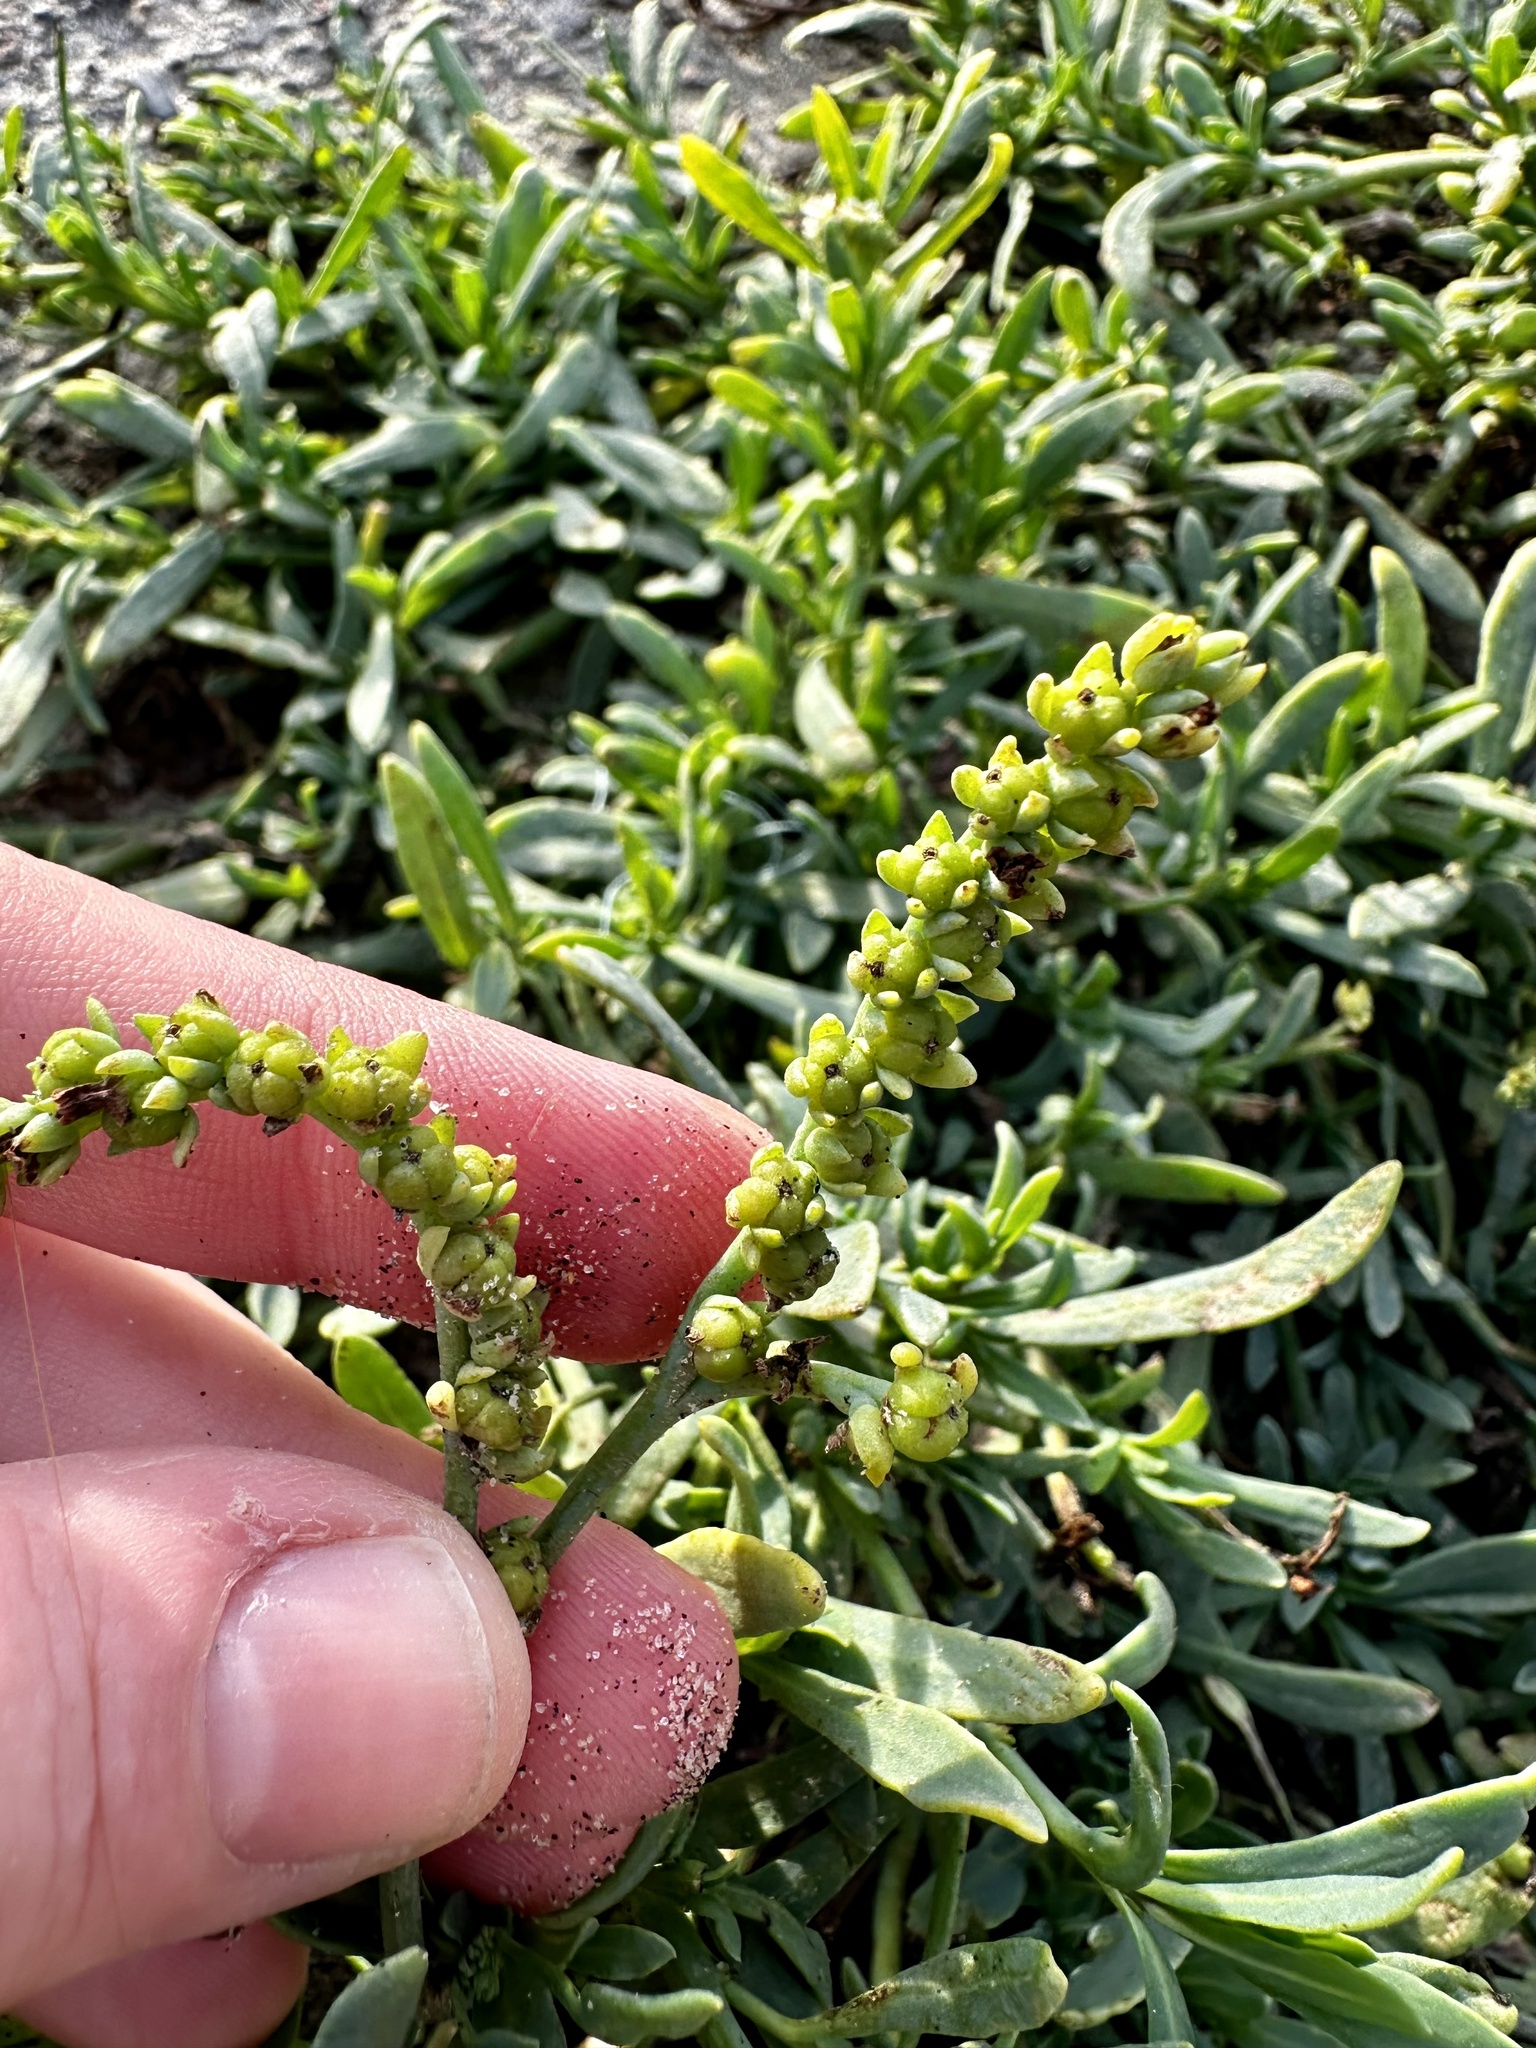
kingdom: Plantae
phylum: Tracheophyta
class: Magnoliopsida
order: Boraginales
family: Heliotropiaceae
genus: Heliotropium
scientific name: Heliotropium curassavicum
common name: Seaside heliotrope
